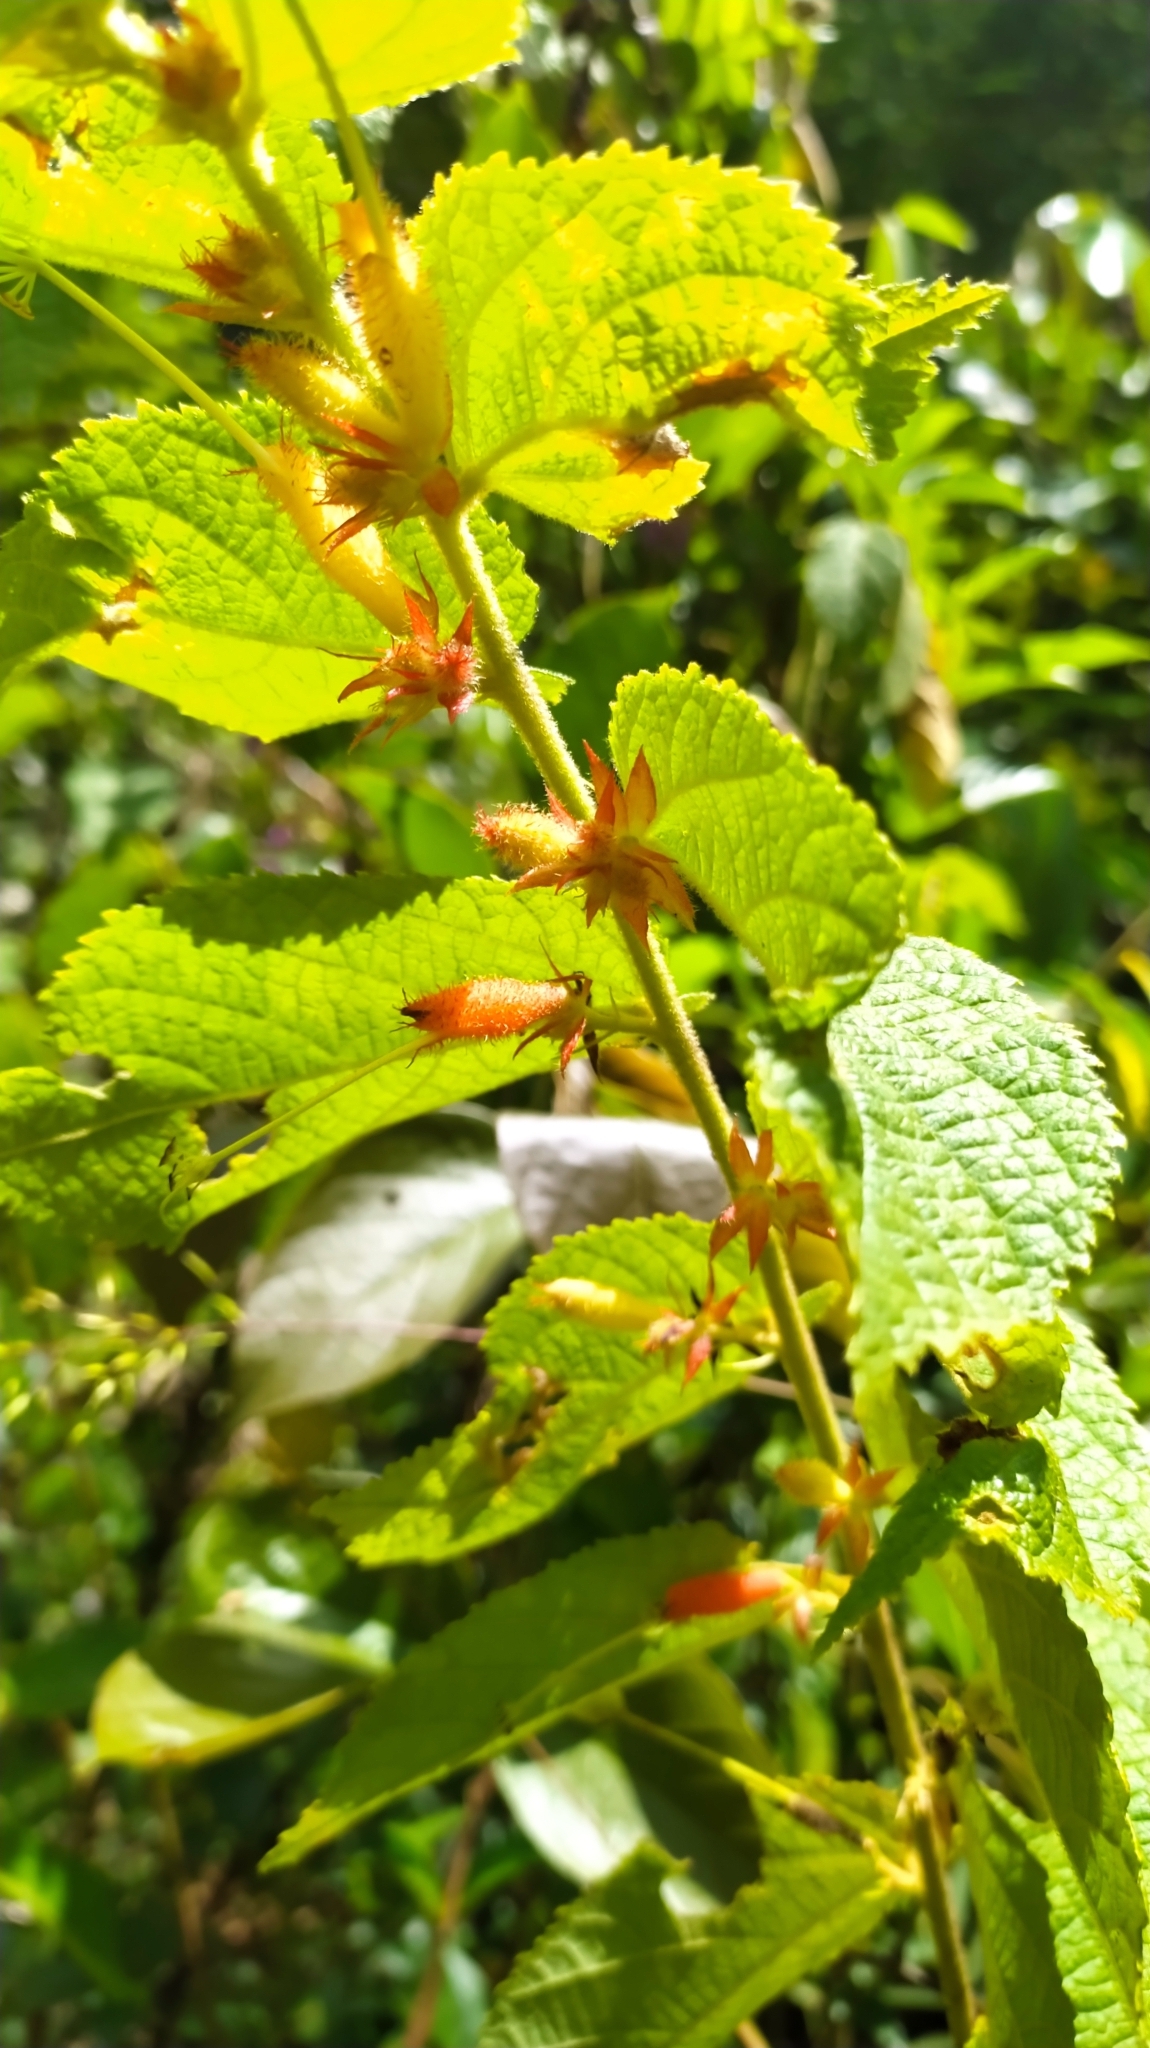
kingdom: Plantae
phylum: Tracheophyta
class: Magnoliopsida
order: Malvales
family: Malvaceae
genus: Helicteres
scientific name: Helicteres pentandra
